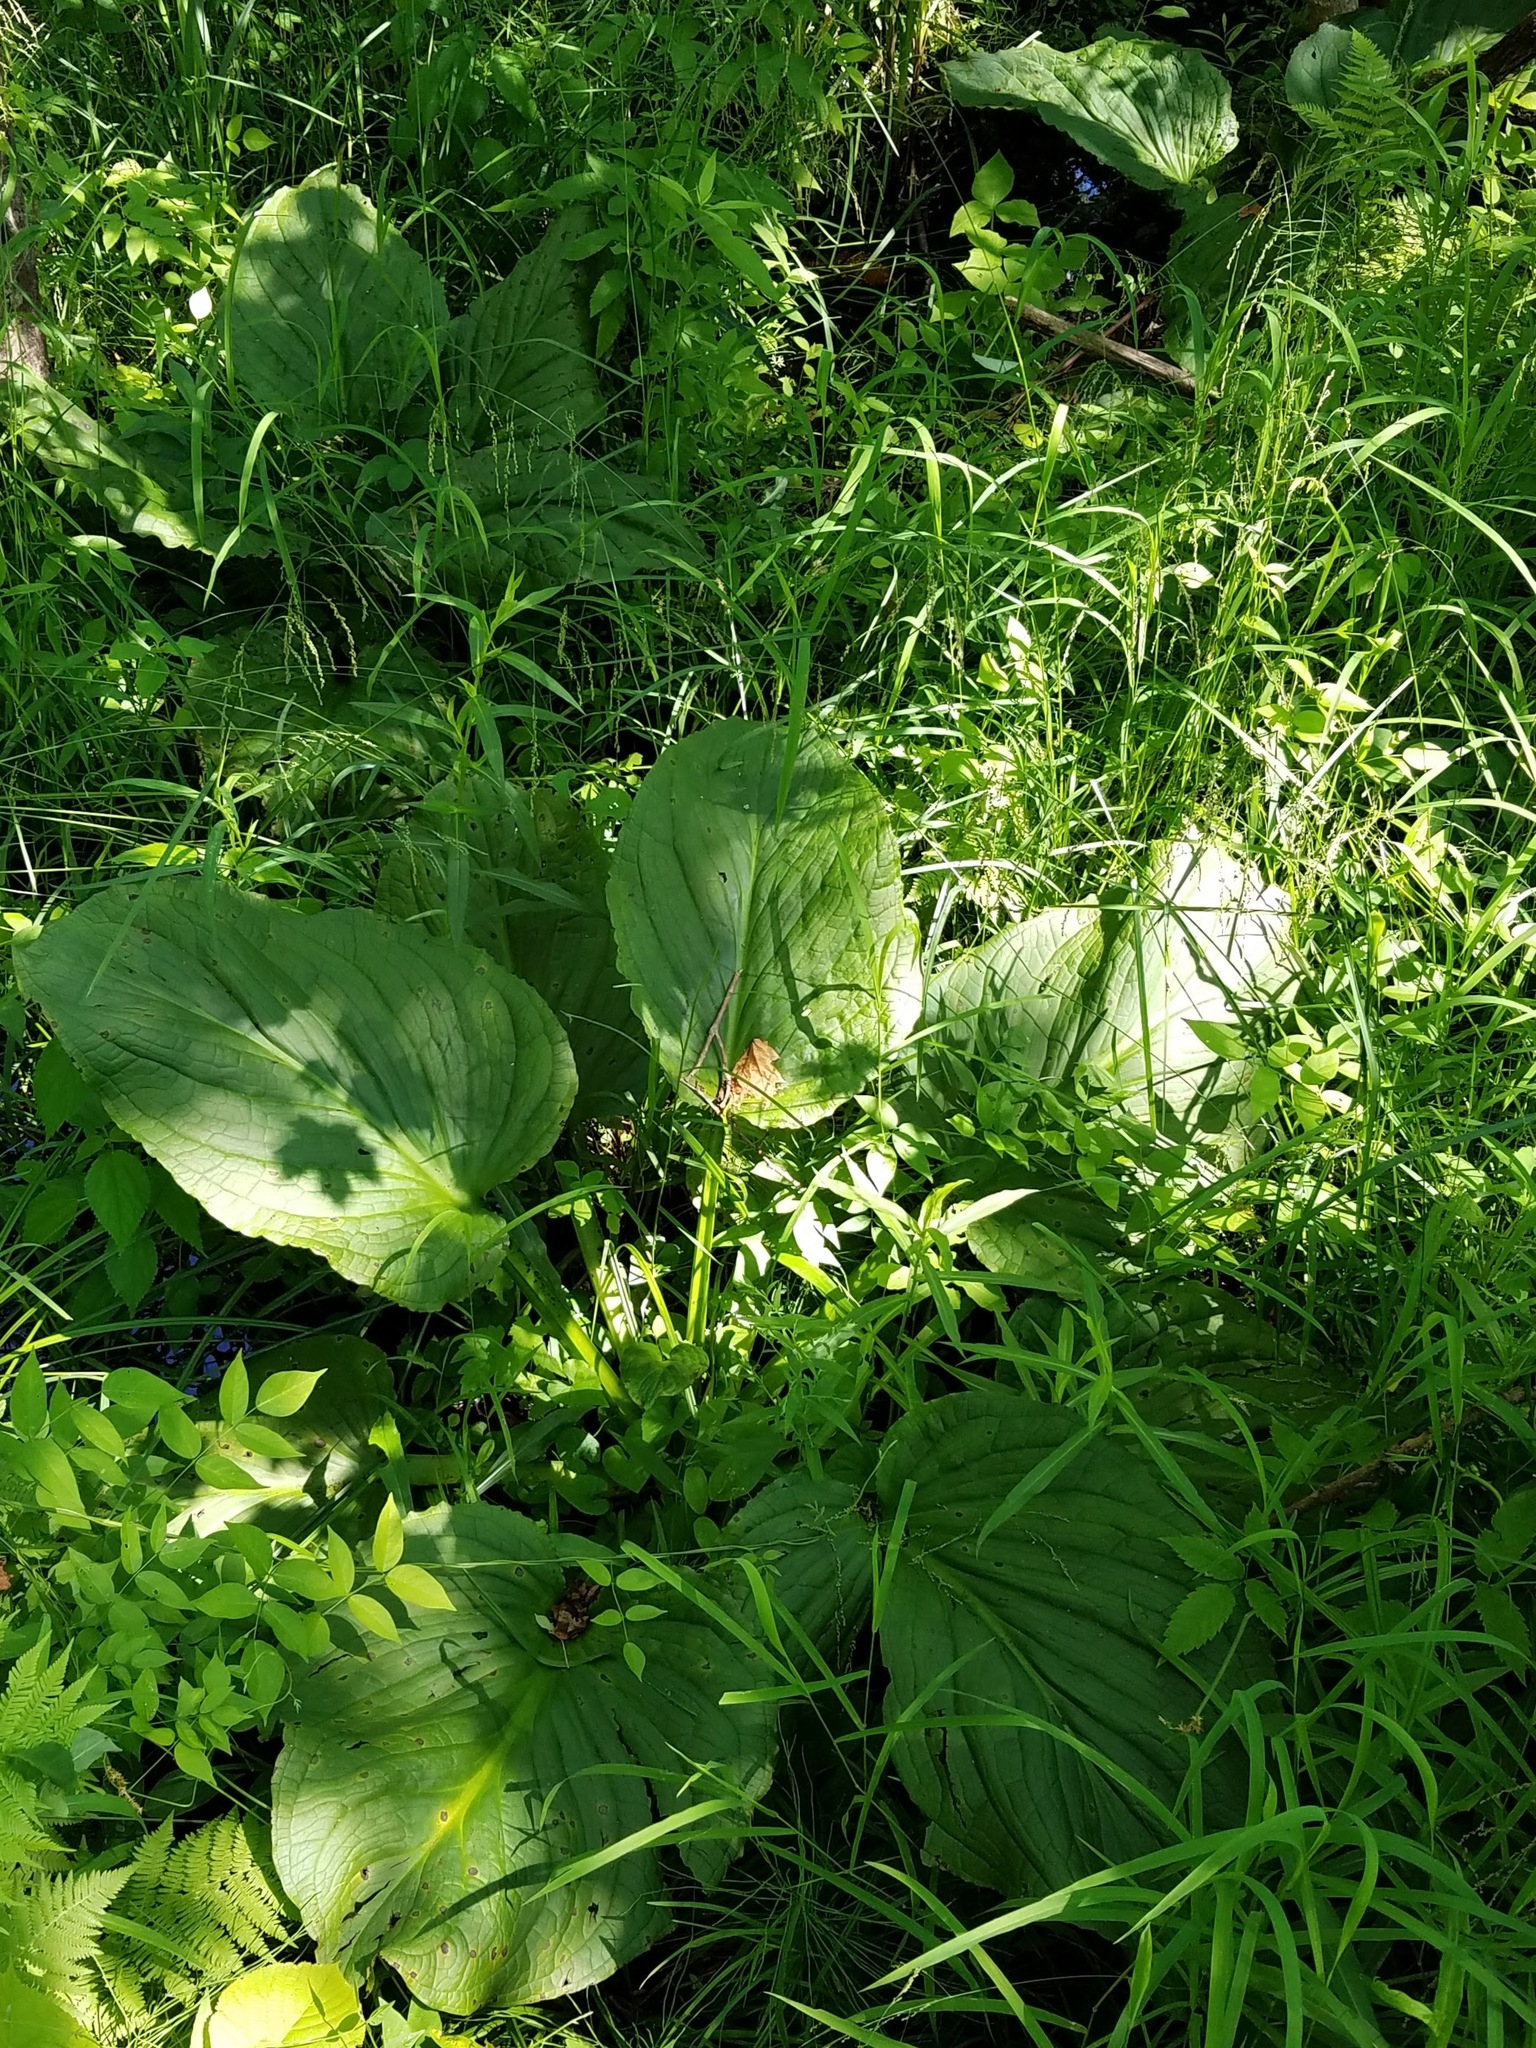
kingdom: Plantae
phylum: Tracheophyta
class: Liliopsida
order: Alismatales
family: Araceae
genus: Symplocarpus
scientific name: Symplocarpus foetidus
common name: Eastern skunk cabbage
